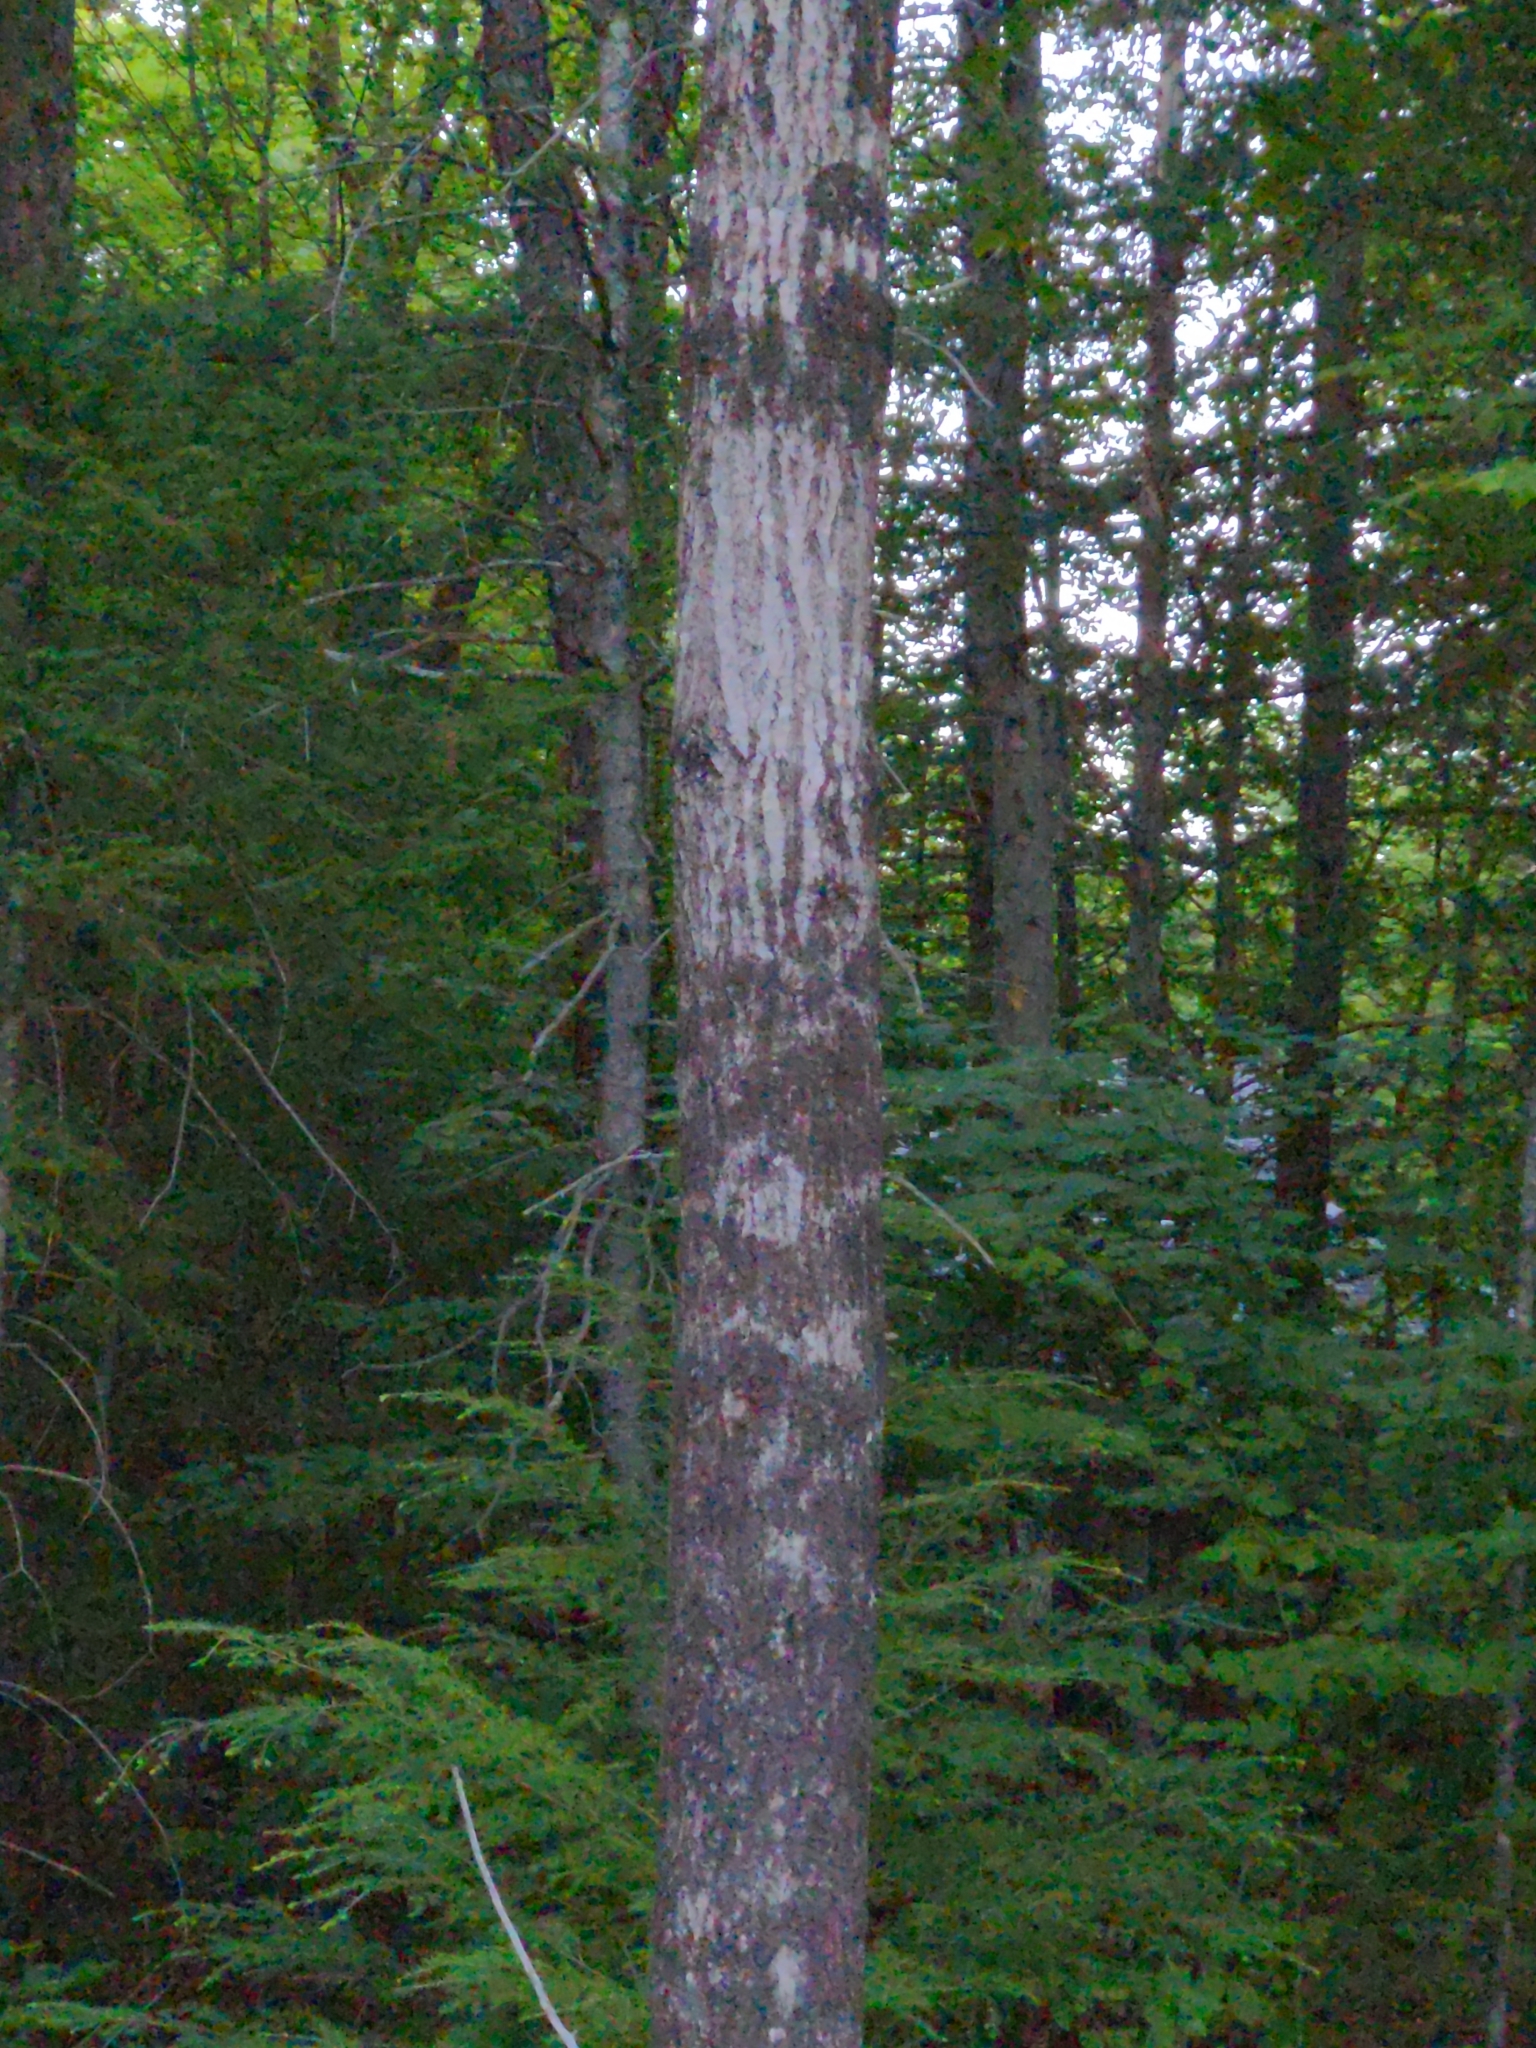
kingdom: Plantae
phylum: Tracheophyta
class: Magnoliopsida
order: Malpighiales
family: Salicaceae
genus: Populus
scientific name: Populus tremuloides
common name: Quaking aspen
